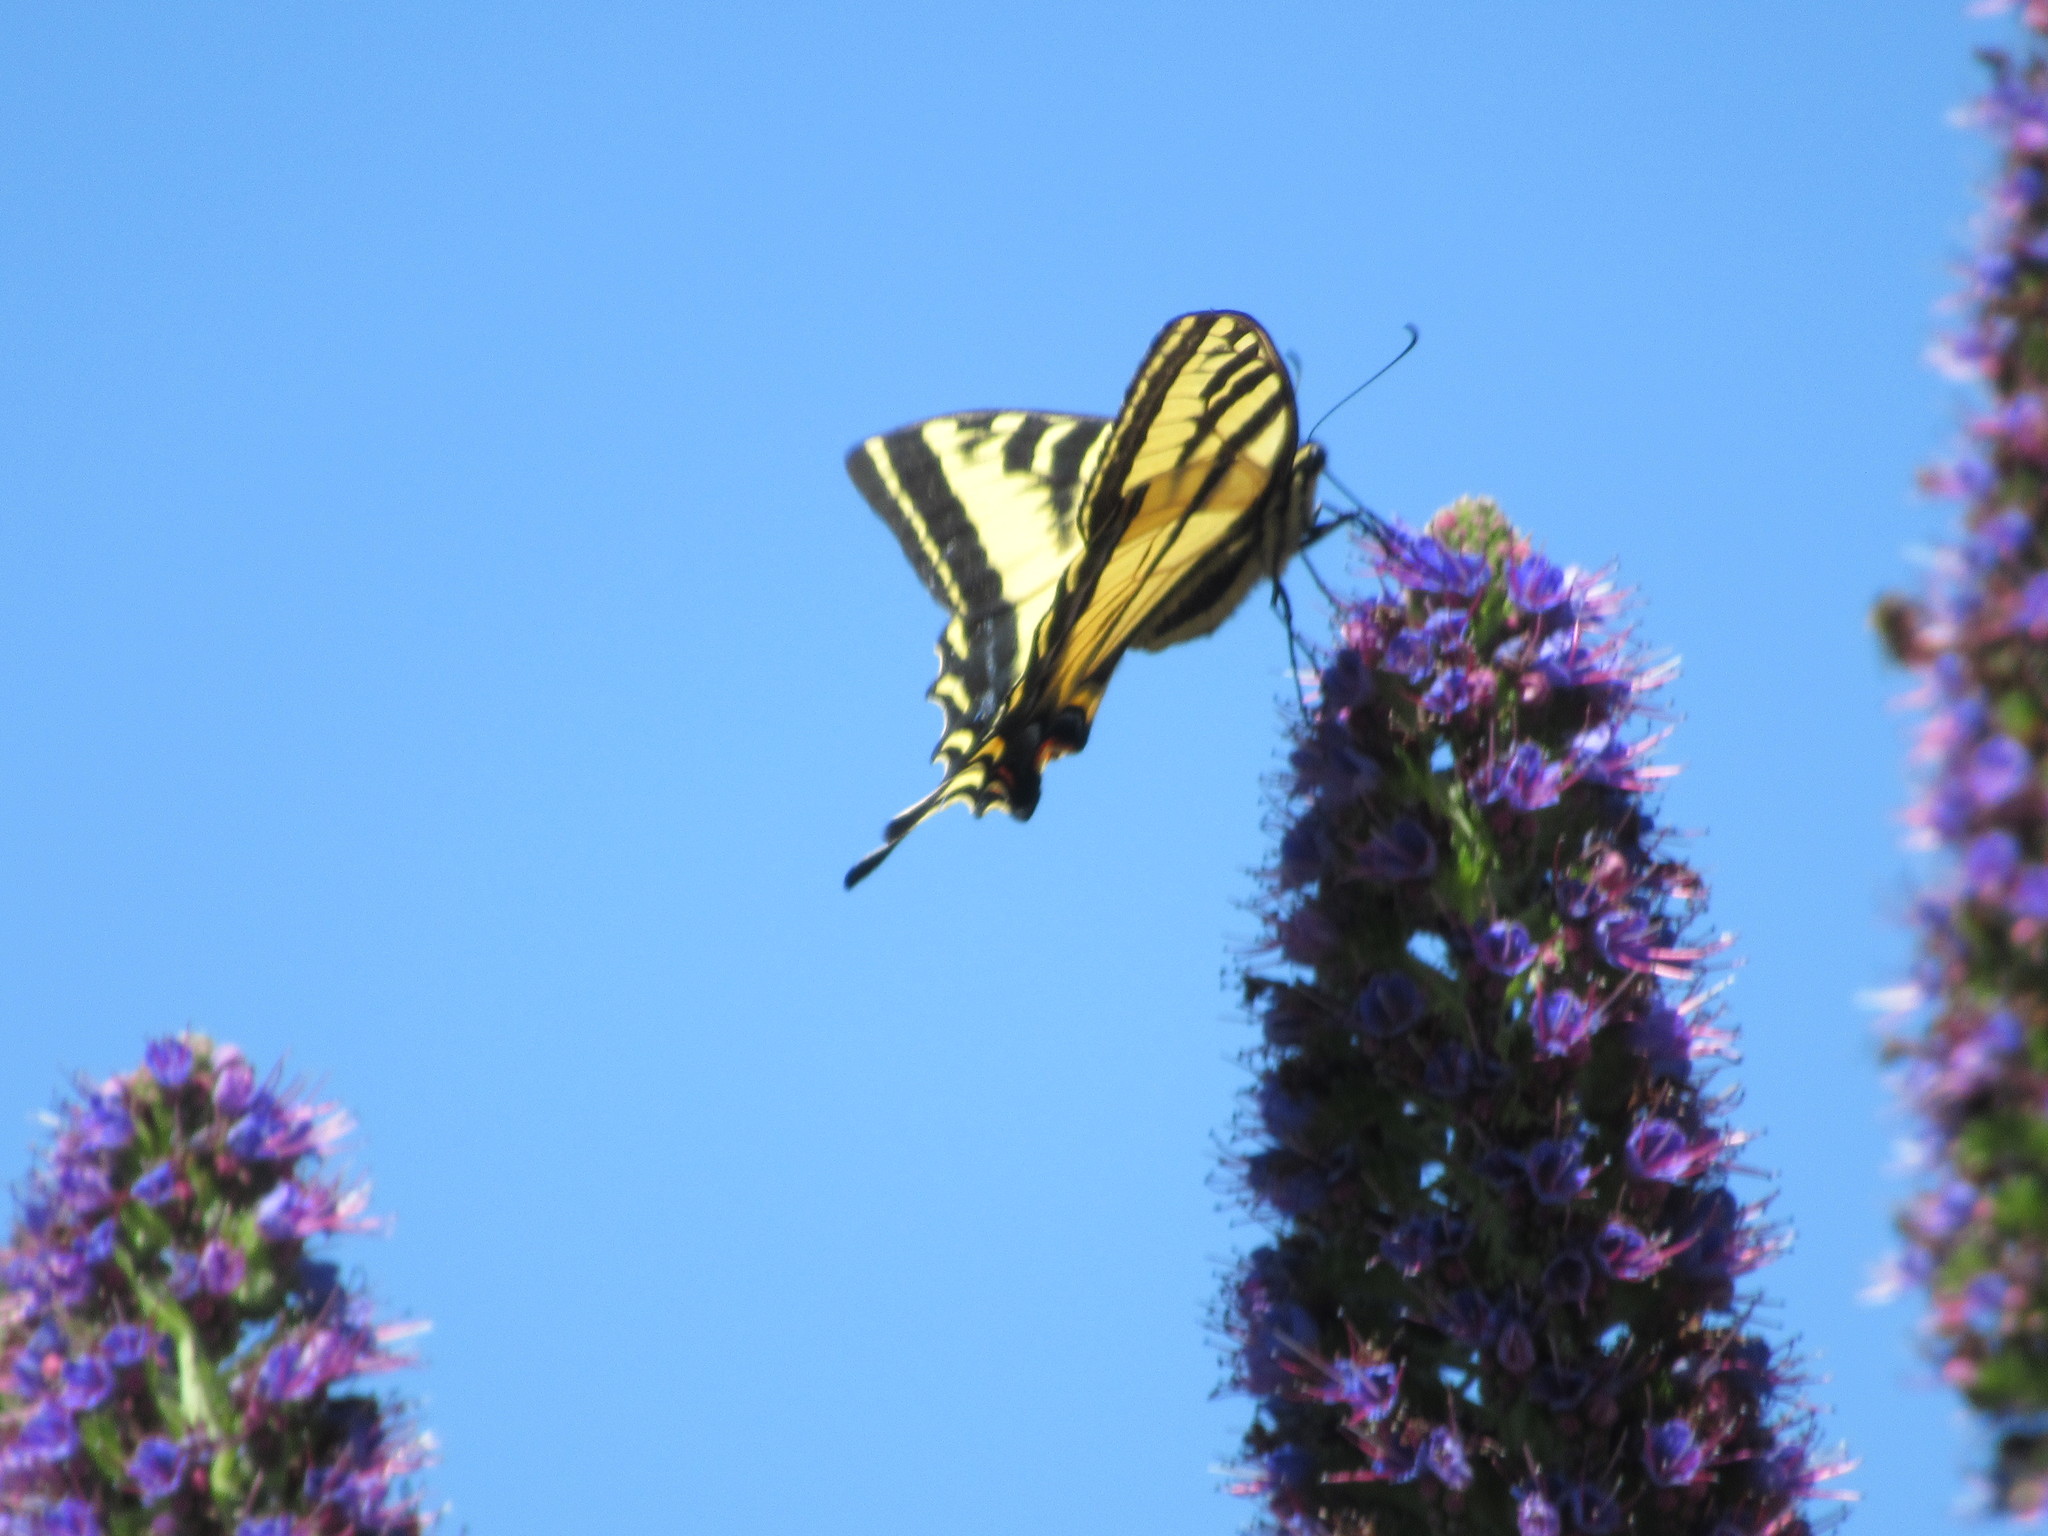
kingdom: Animalia
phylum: Arthropoda
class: Insecta
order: Lepidoptera
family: Papilionidae
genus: Papilio
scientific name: Papilio rutulus
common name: Western tiger swallowtail
